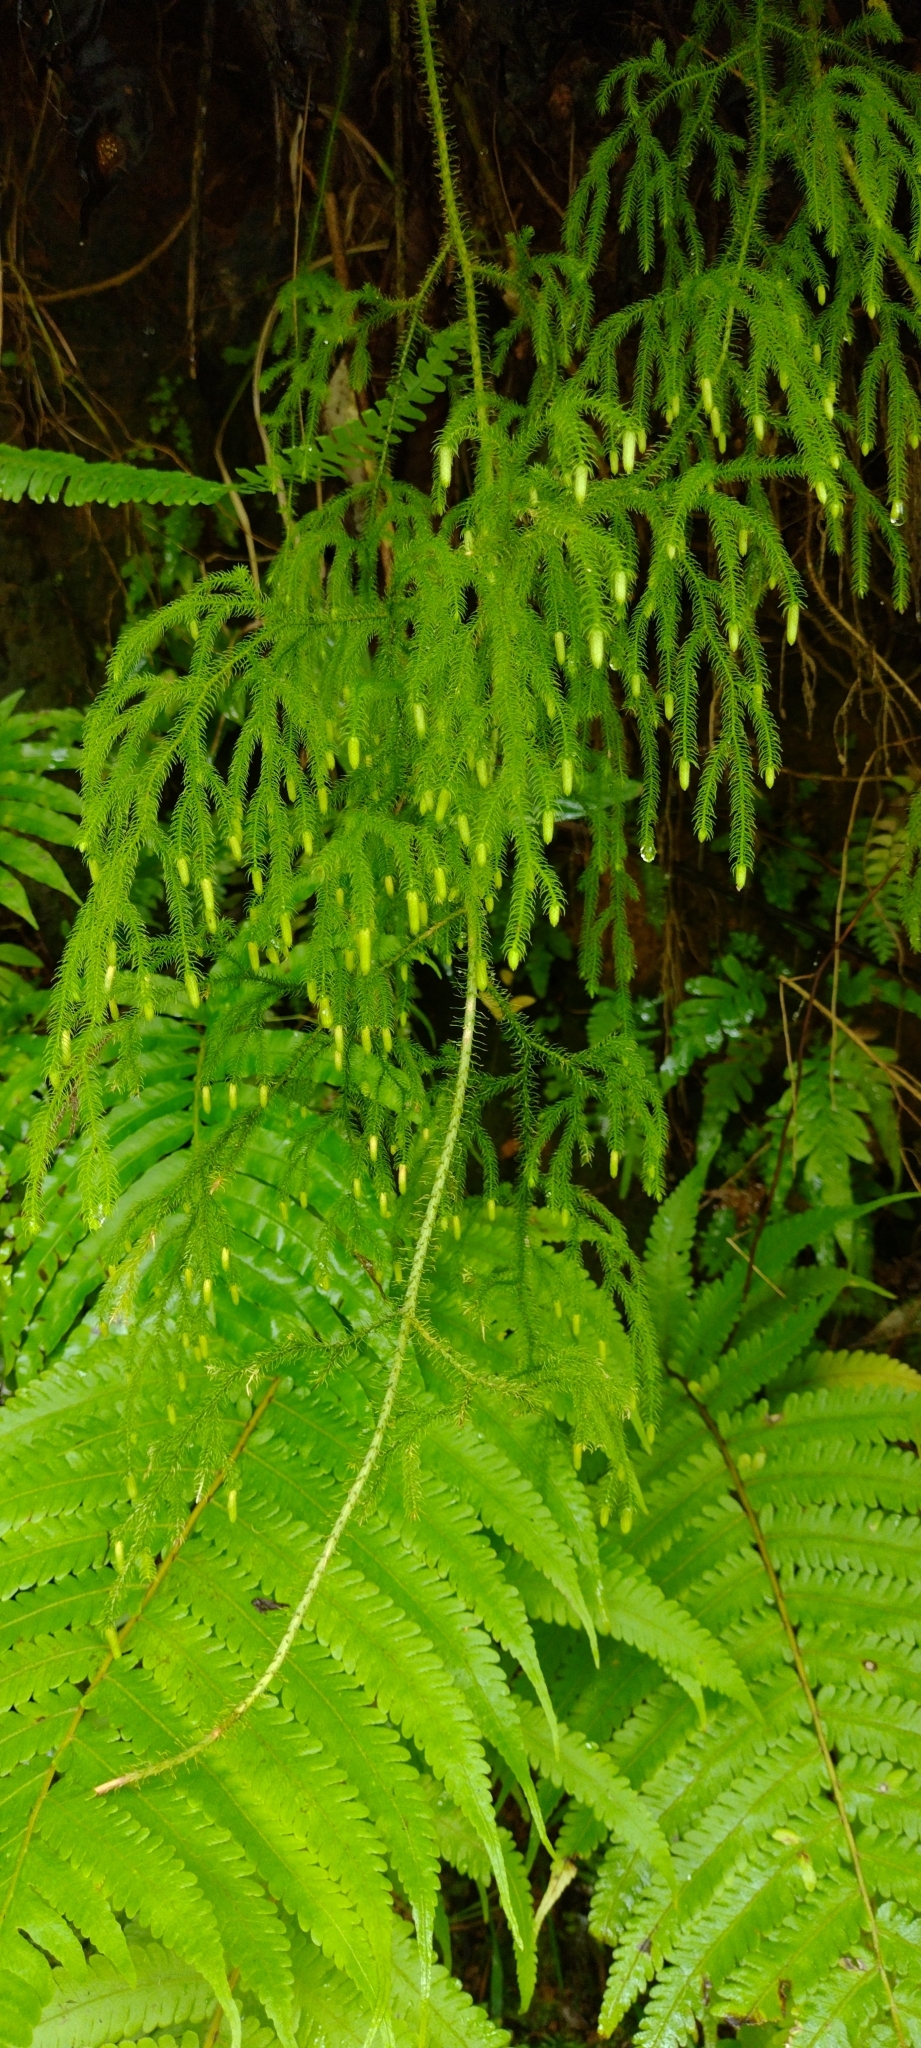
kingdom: Plantae
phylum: Tracheophyta
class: Lycopodiopsida
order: Lycopodiales
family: Lycopodiaceae
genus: Palhinhaea
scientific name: Palhinhaea cernua
